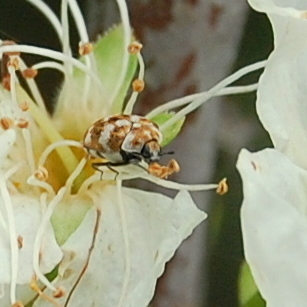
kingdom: Animalia
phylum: Arthropoda
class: Insecta
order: Coleoptera
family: Dermestidae
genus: Anthrenus
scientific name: Anthrenus verbasci
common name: Varied carpet beetle
